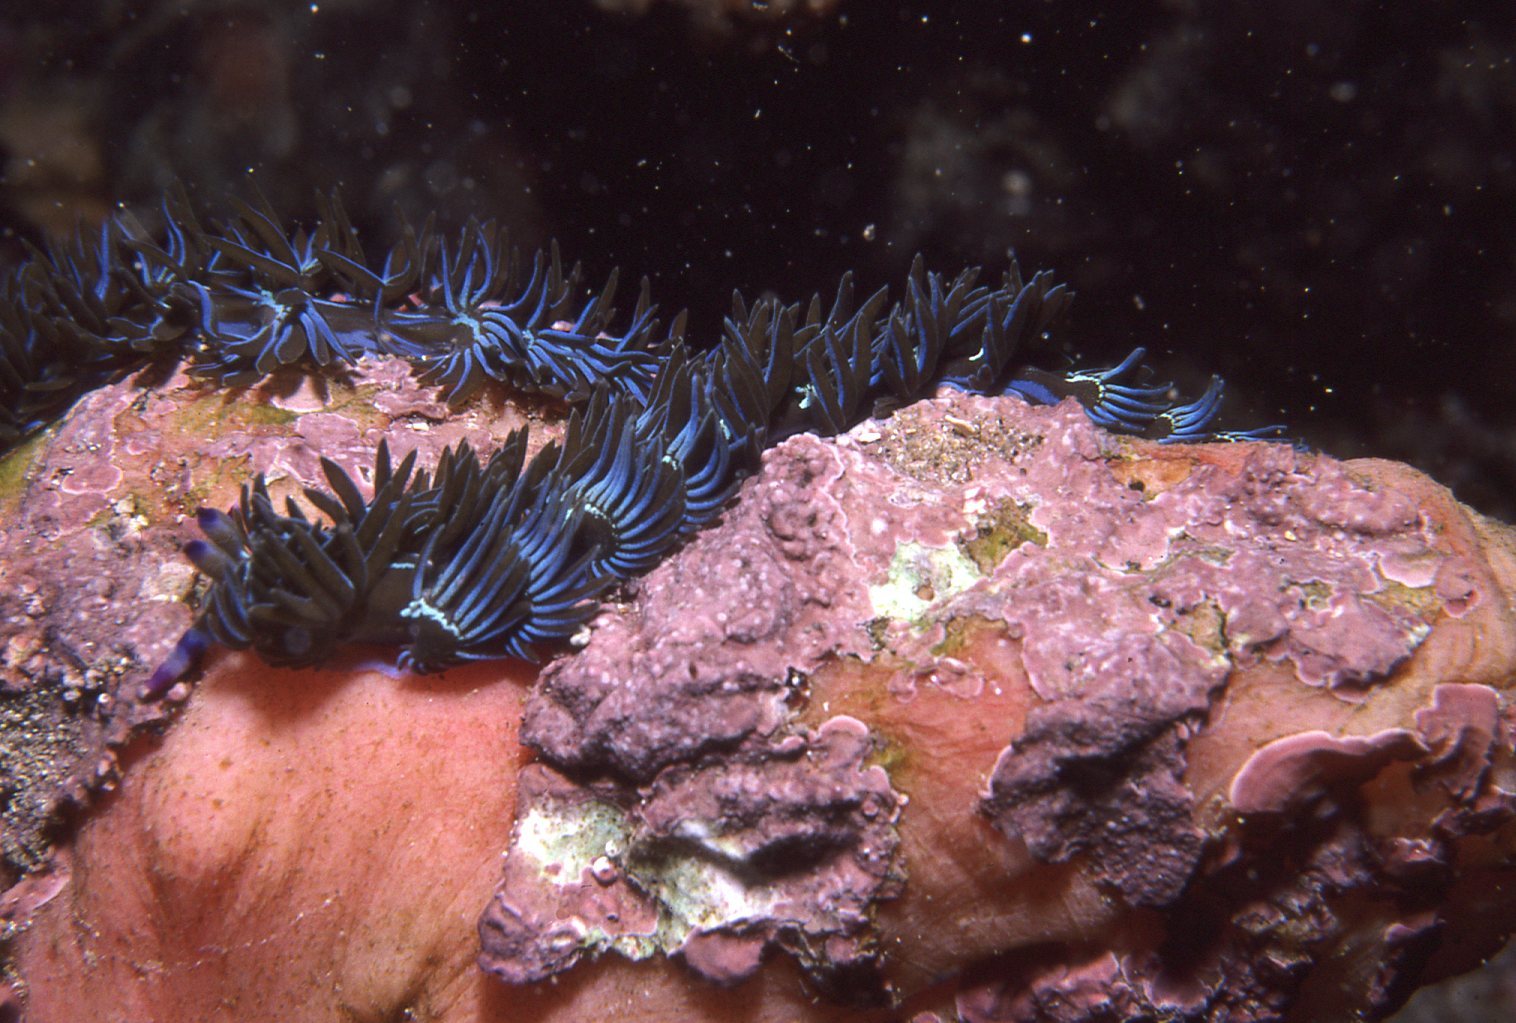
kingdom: Animalia
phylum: Mollusca
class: Gastropoda
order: Nudibranchia
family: Facelinidae
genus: Pteraeolidia
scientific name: Pteraeolidia ianthina
